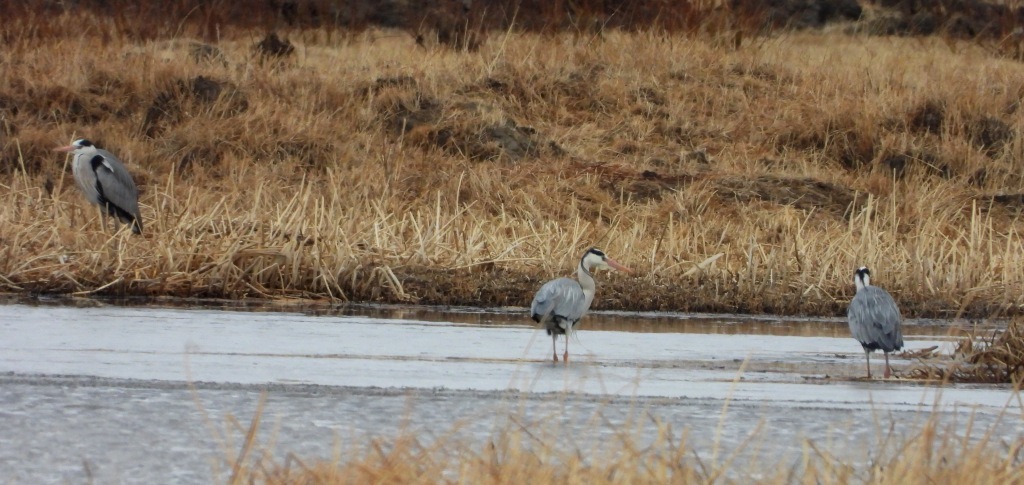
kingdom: Animalia
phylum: Chordata
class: Aves
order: Pelecaniformes
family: Ardeidae
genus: Ardea
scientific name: Ardea cinerea
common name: Grey heron
